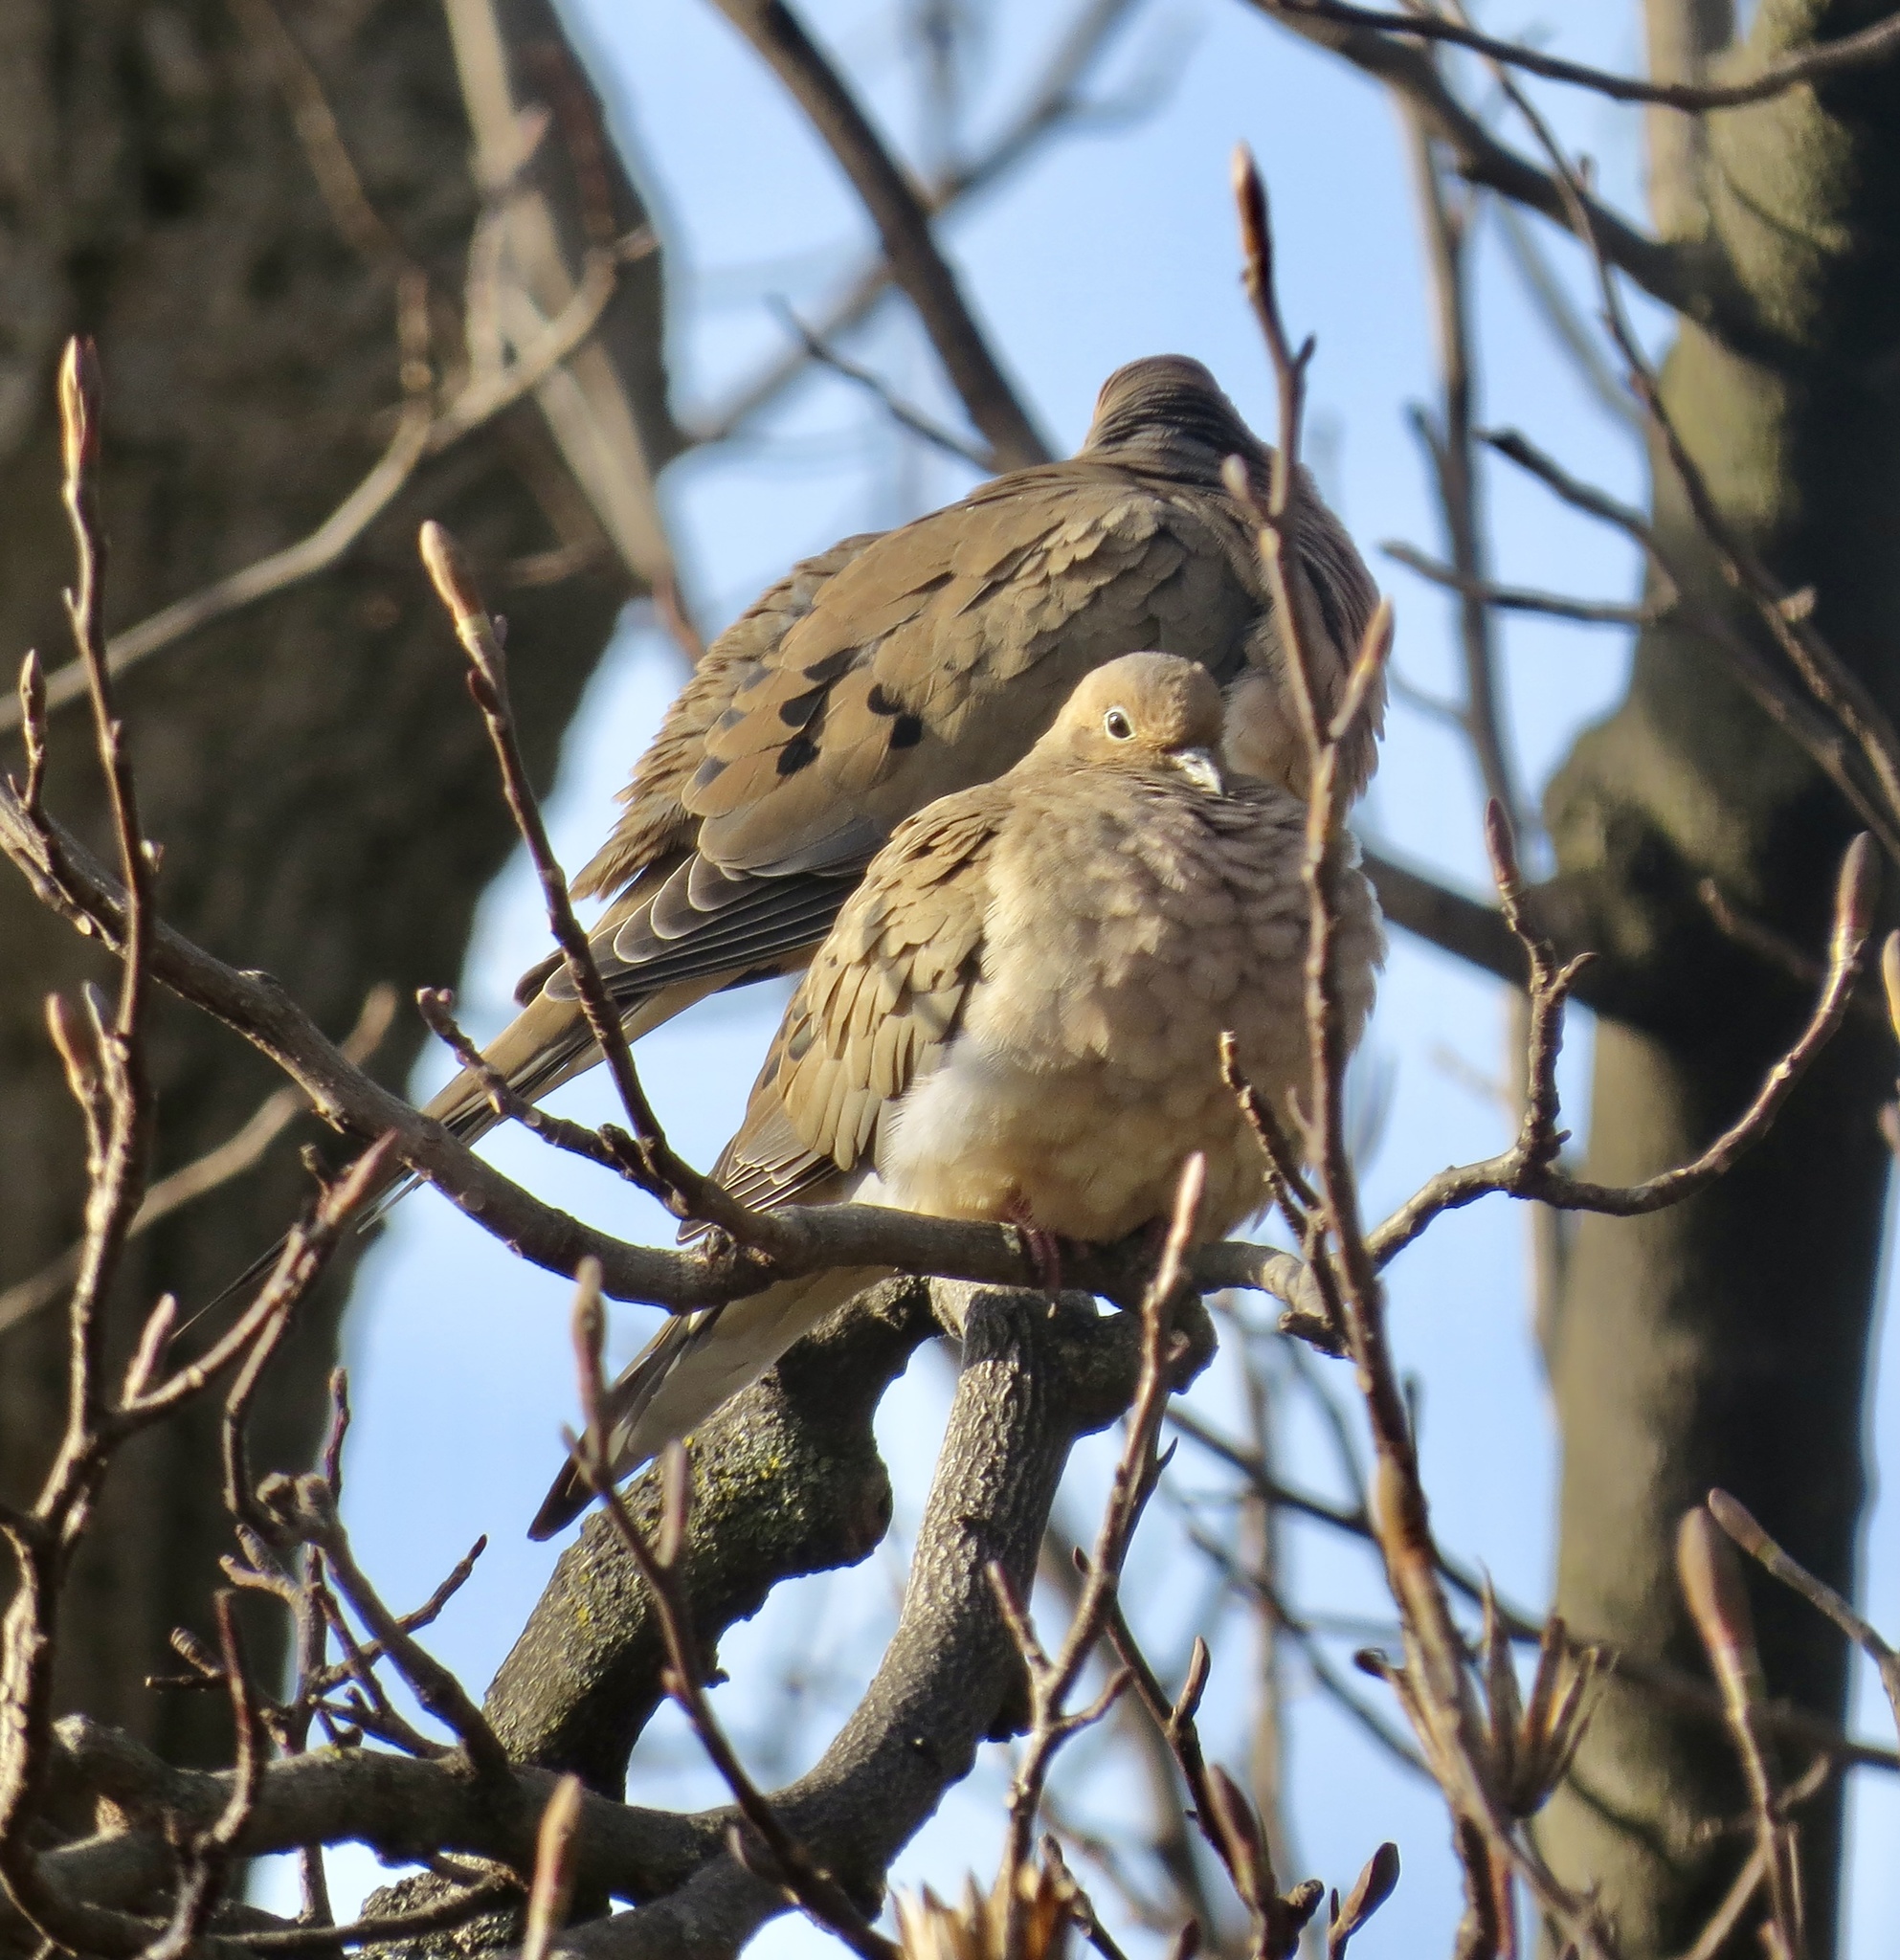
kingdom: Animalia
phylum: Chordata
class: Aves
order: Columbiformes
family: Columbidae
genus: Zenaida
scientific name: Zenaida macroura
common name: Mourning dove
